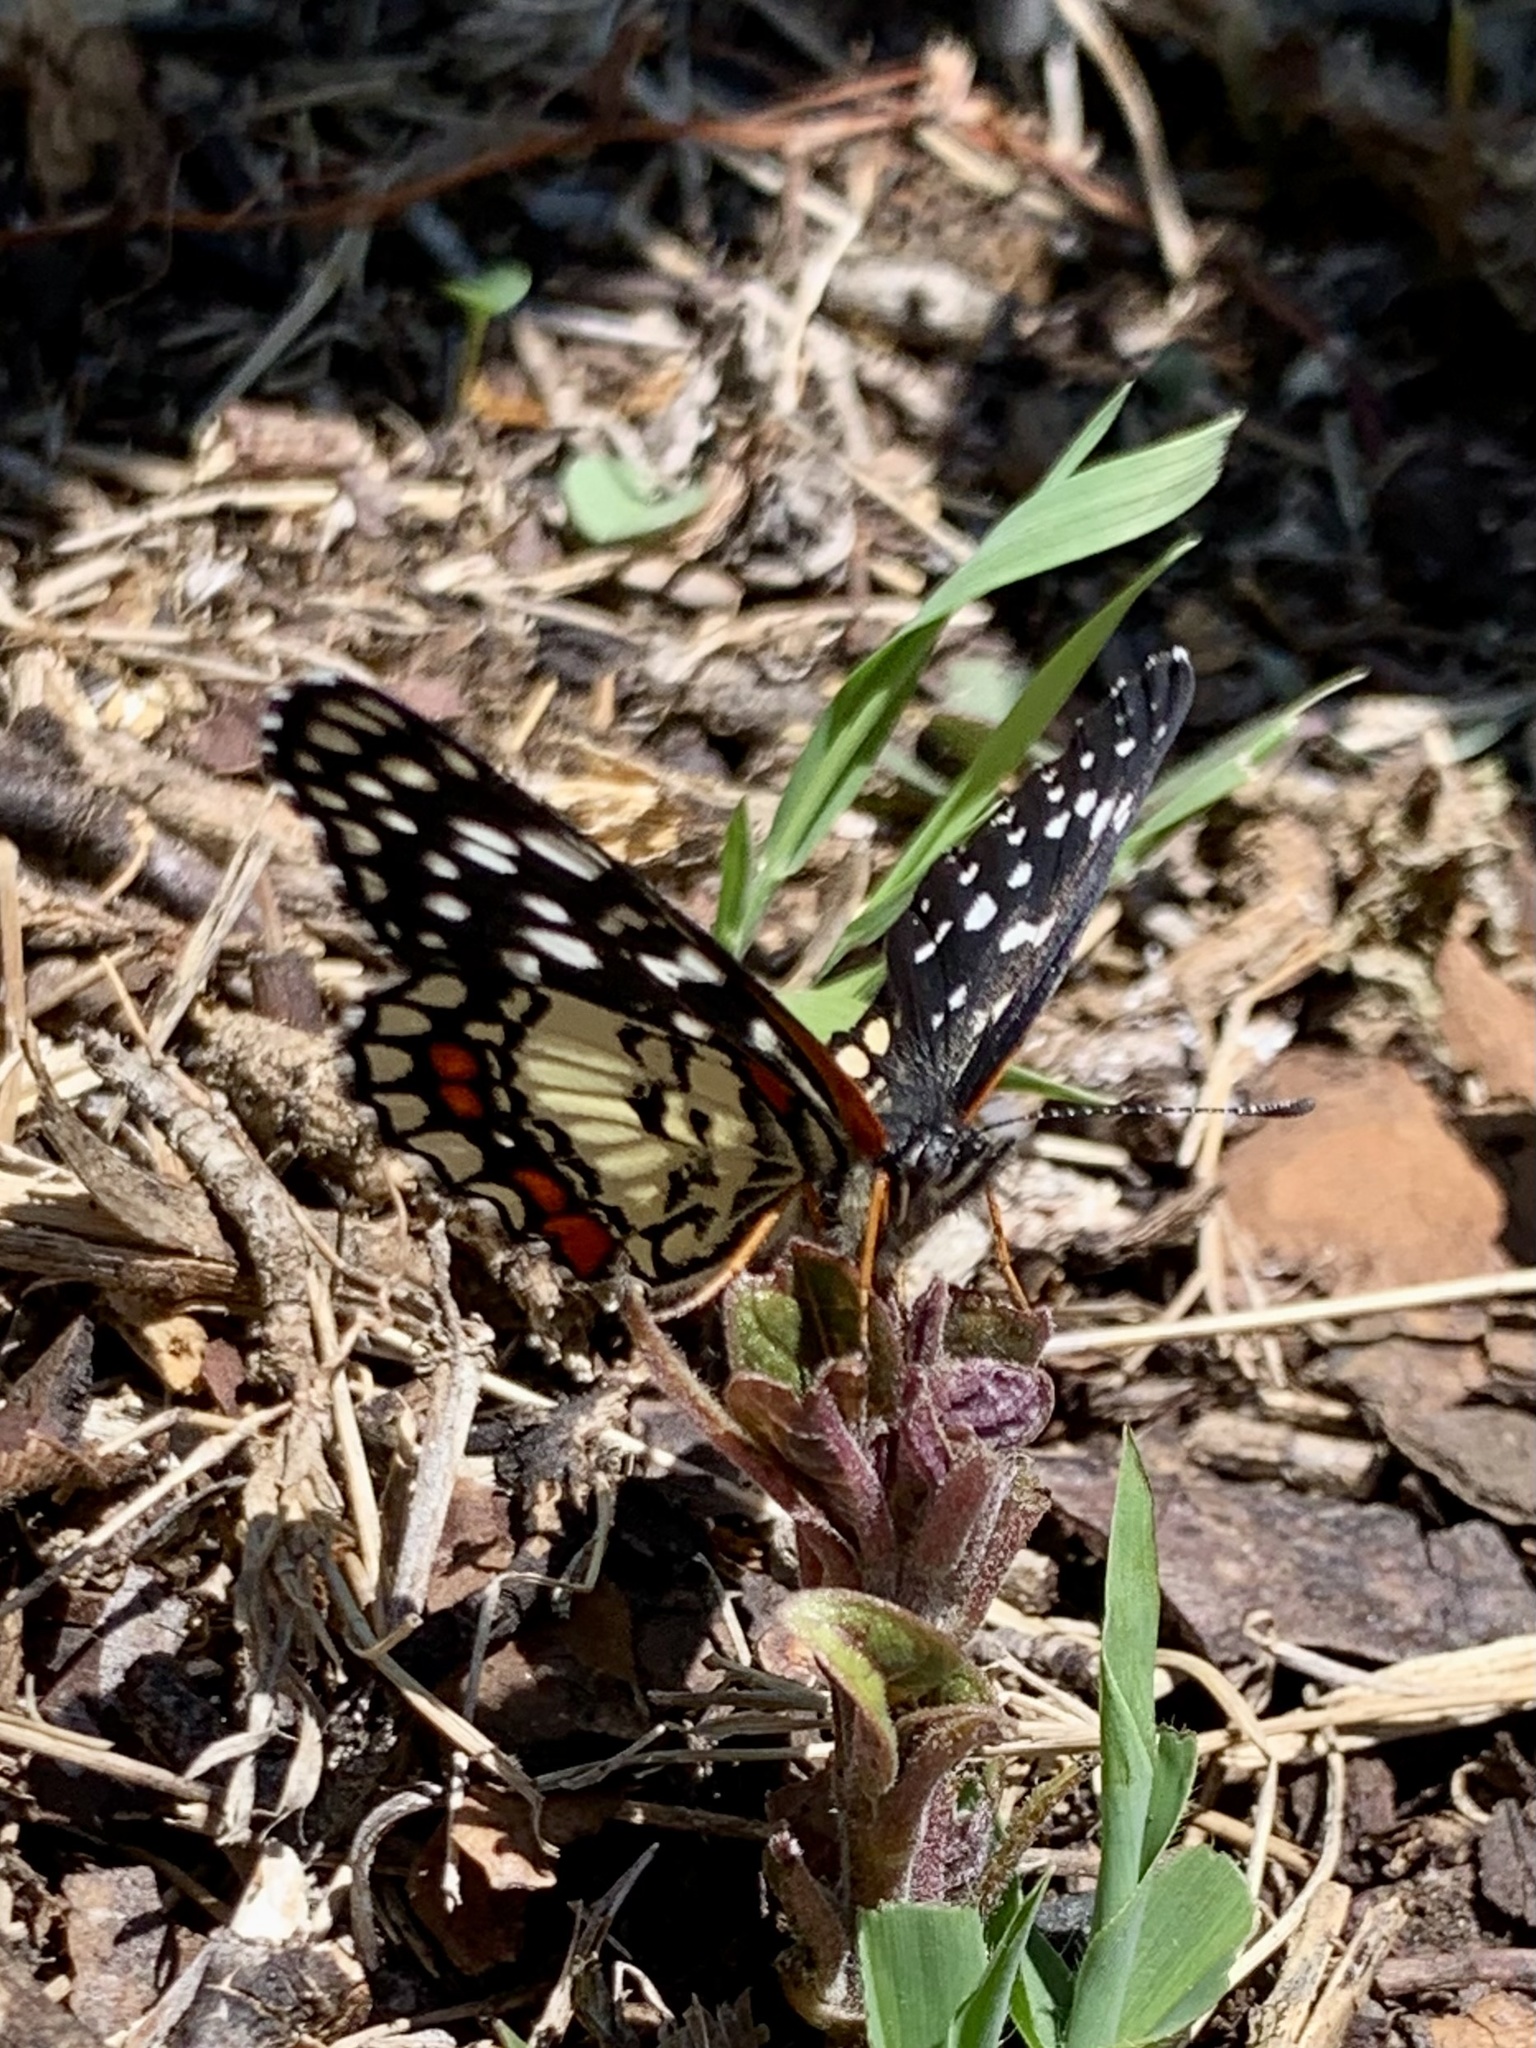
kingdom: Animalia
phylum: Arthropoda
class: Insecta
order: Lepidoptera
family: Nymphalidae
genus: Chlosyne
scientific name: Chlosyne marina
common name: Red-spotted patch
